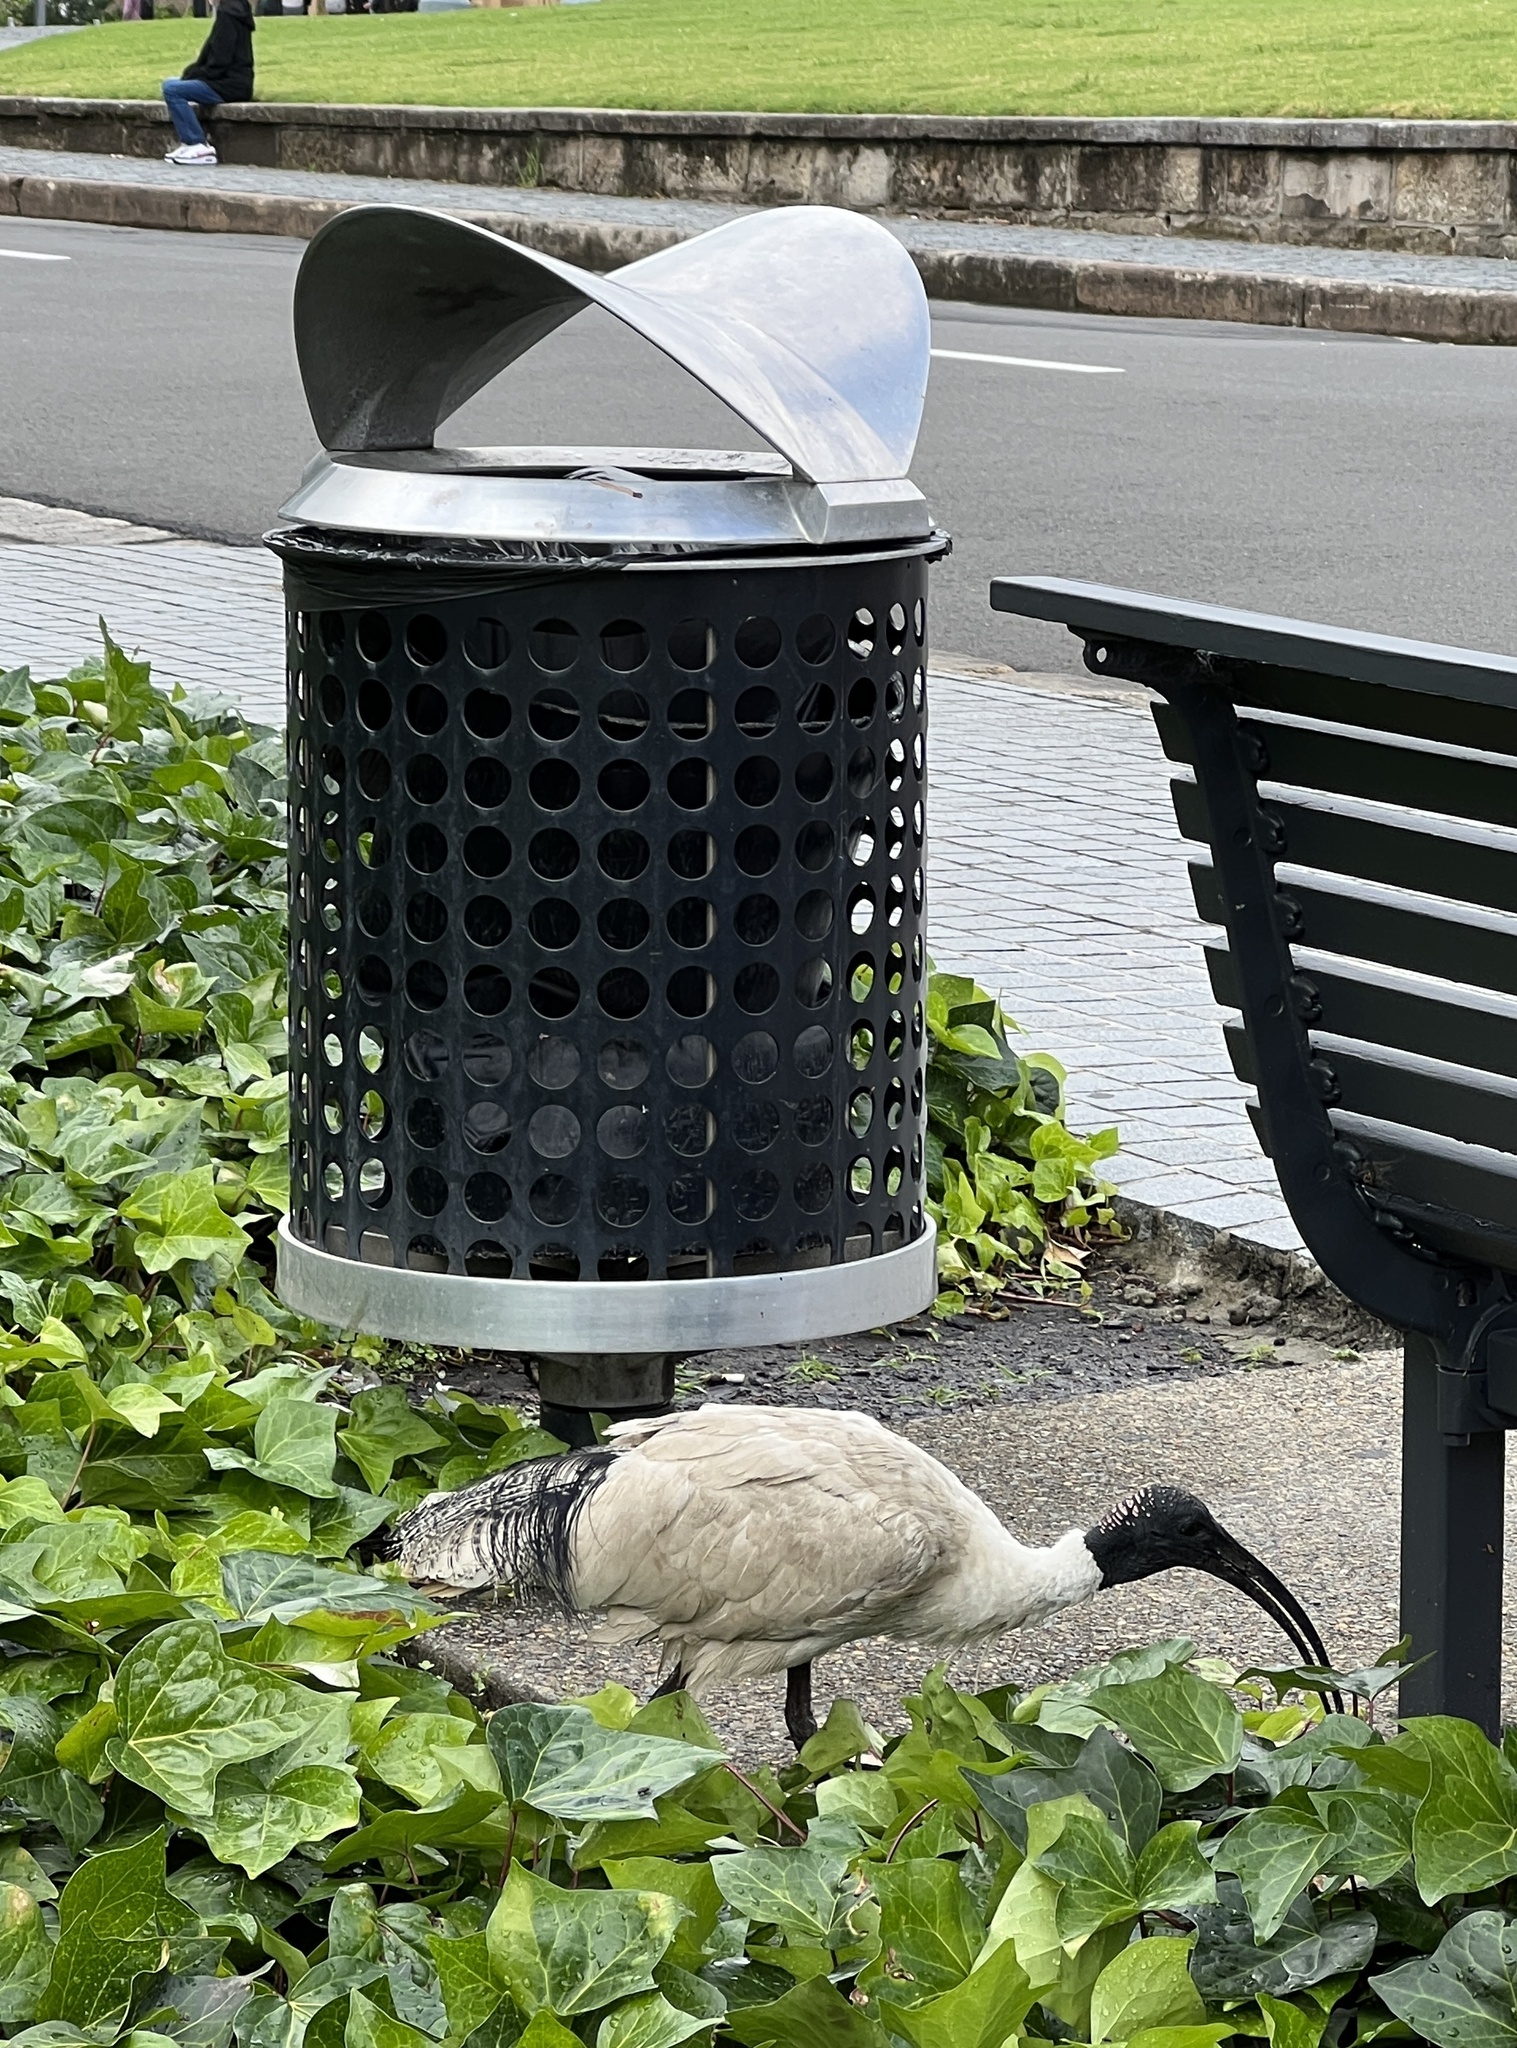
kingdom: Animalia
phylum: Chordata
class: Aves
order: Pelecaniformes
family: Threskiornithidae
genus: Threskiornis
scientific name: Threskiornis molucca
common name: Australian white ibis
